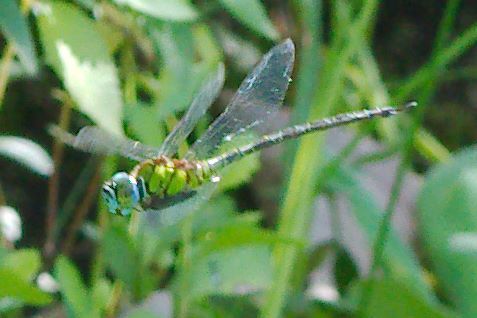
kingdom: Animalia
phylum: Arthropoda
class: Insecta
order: Odonata
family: Aeshnidae
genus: Coryphaeschna
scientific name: Coryphaeschna adnexa
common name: Blue-faced darner
